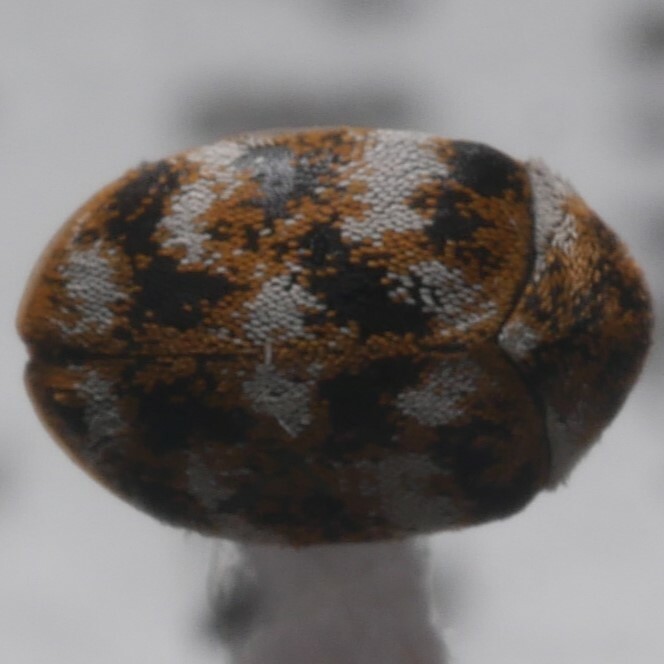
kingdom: Animalia
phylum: Arthropoda
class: Insecta
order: Coleoptera
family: Dermestidae
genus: Anthrenus
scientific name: Anthrenus verbasci
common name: Varied carpet beetle
